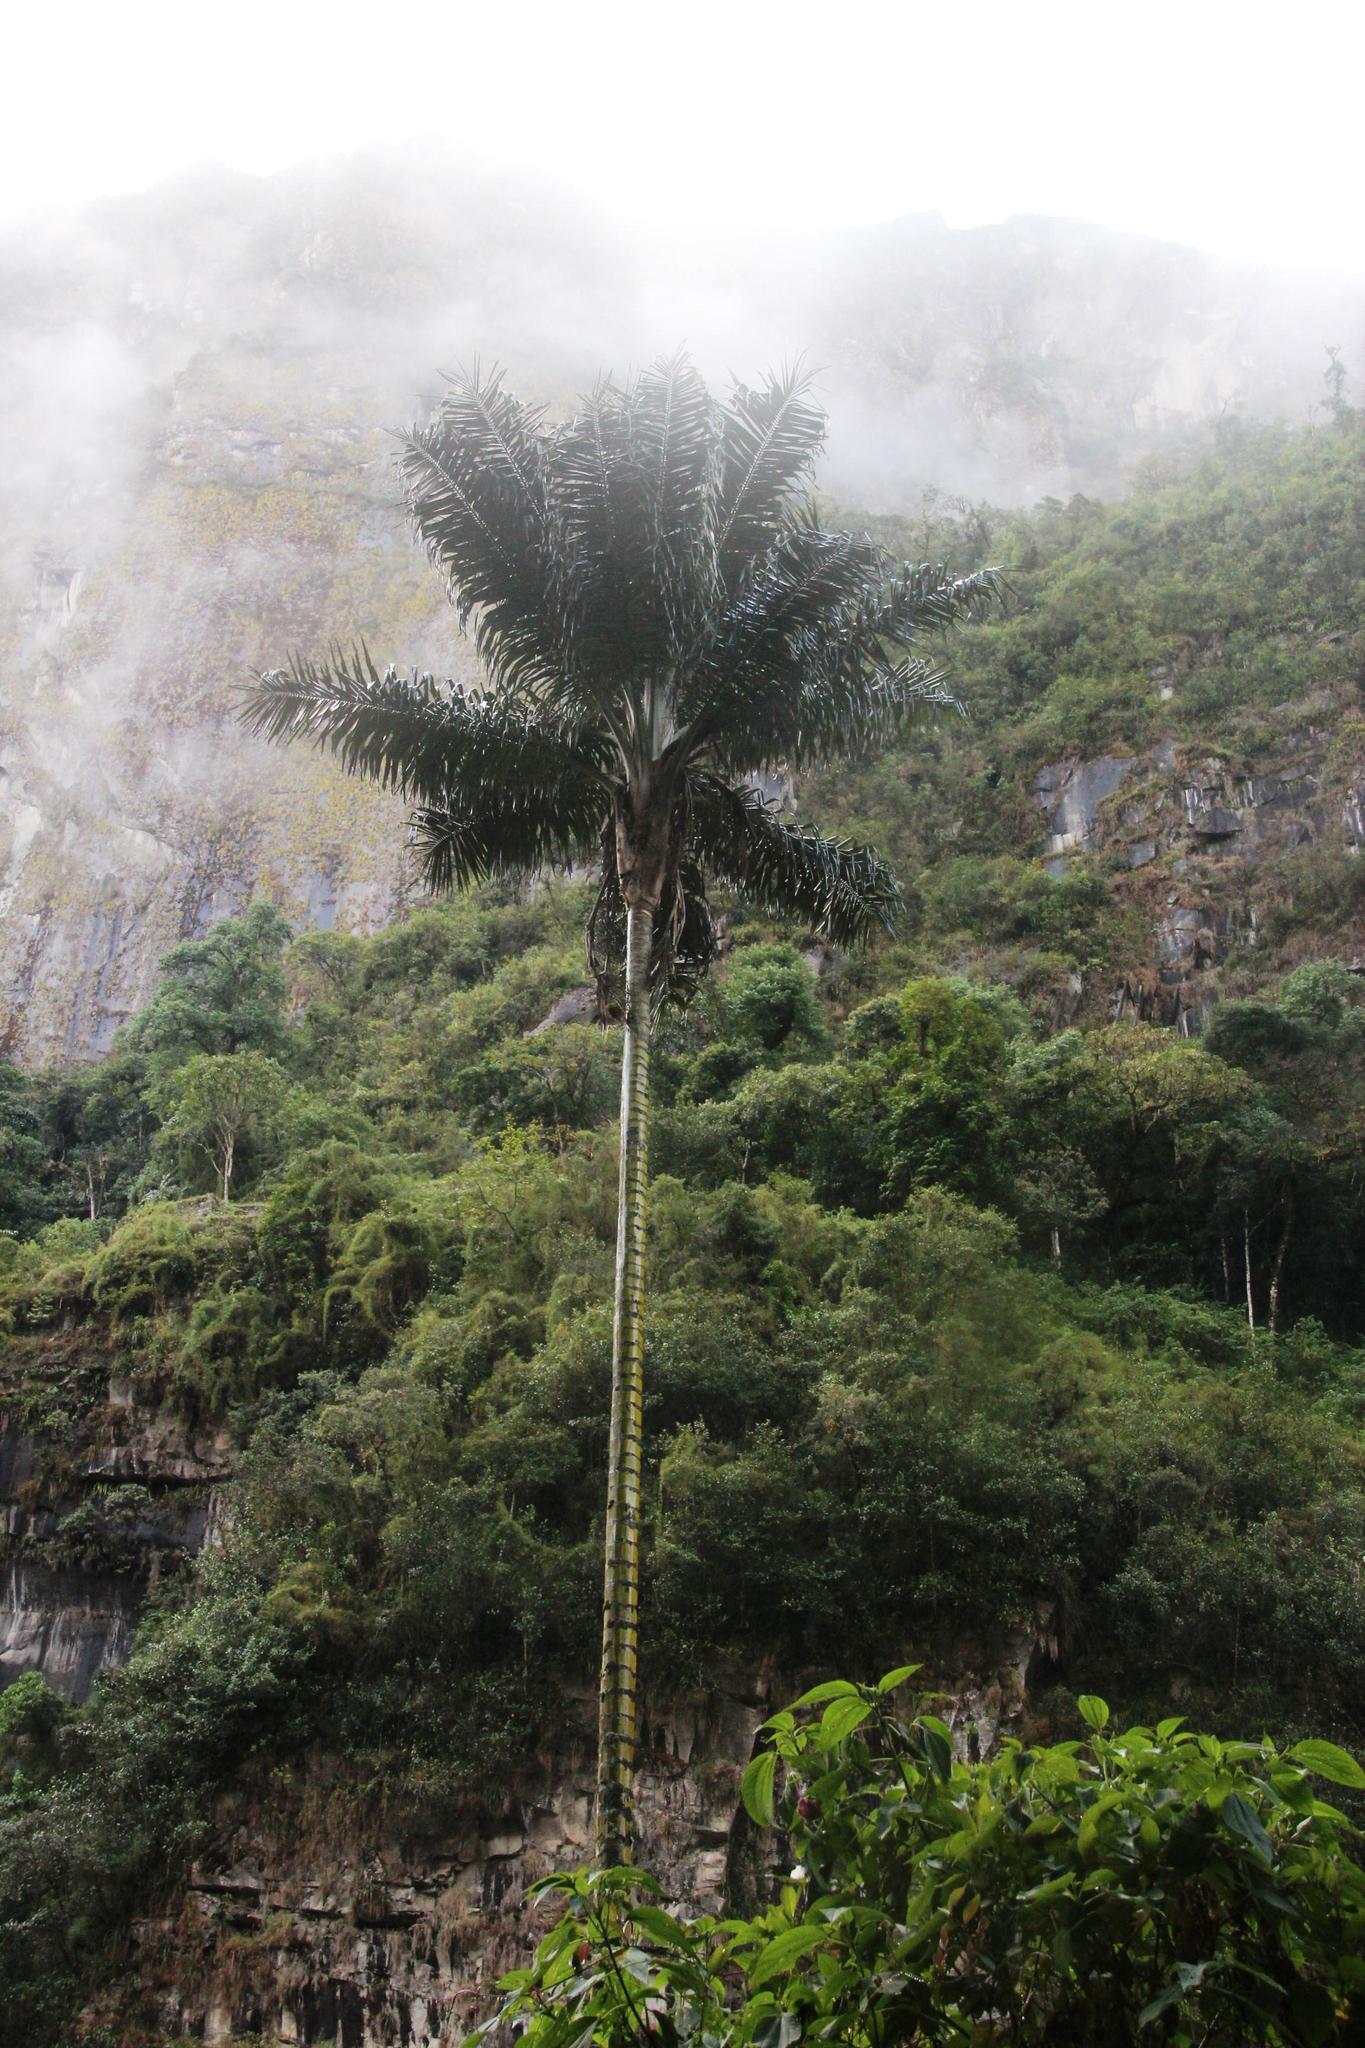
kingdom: Plantae
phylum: Tracheophyta
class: Liliopsida
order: Arecales
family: Arecaceae
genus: Ceroxylon
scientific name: Ceroxylon vogelianum
